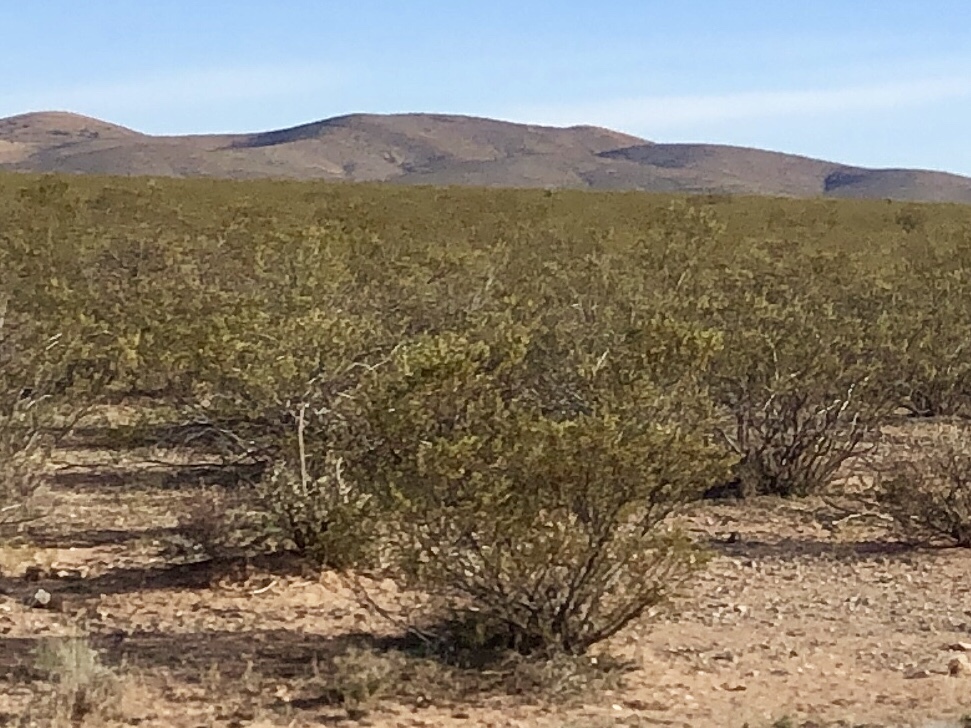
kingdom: Plantae
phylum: Tracheophyta
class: Magnoliopsida
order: Zygophyllales
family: Zygophyllaceae
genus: Larrea
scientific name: Larrea tridentata
